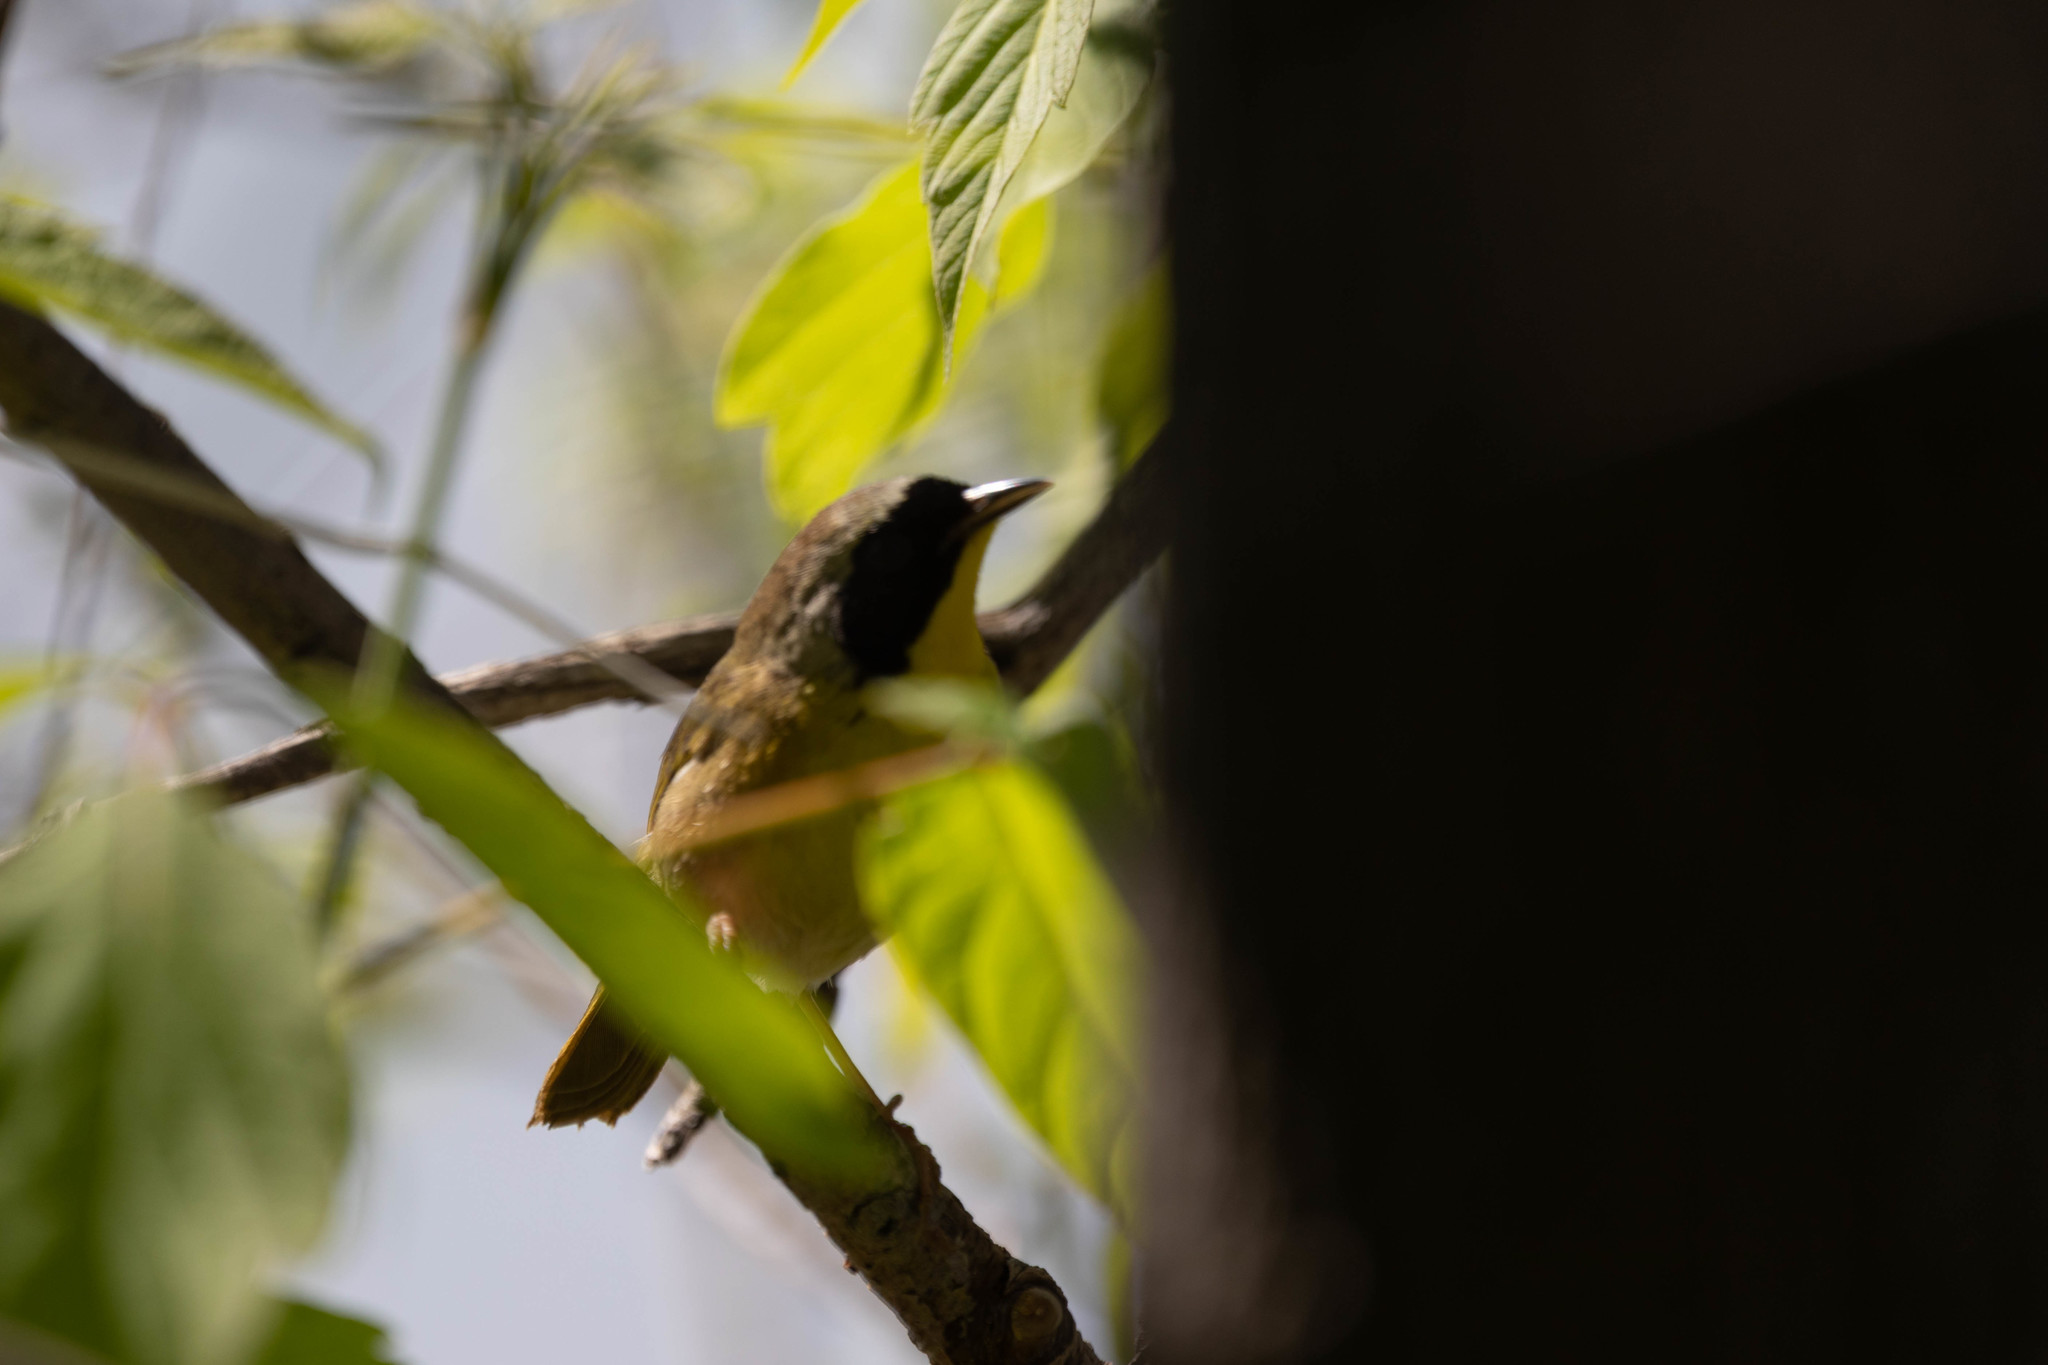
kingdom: Animalia
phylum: Chordata
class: Aves
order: Passeriformes
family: Parulidae
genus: Geothlypis
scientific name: Geothlypis trichas
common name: Common yellowthroat
